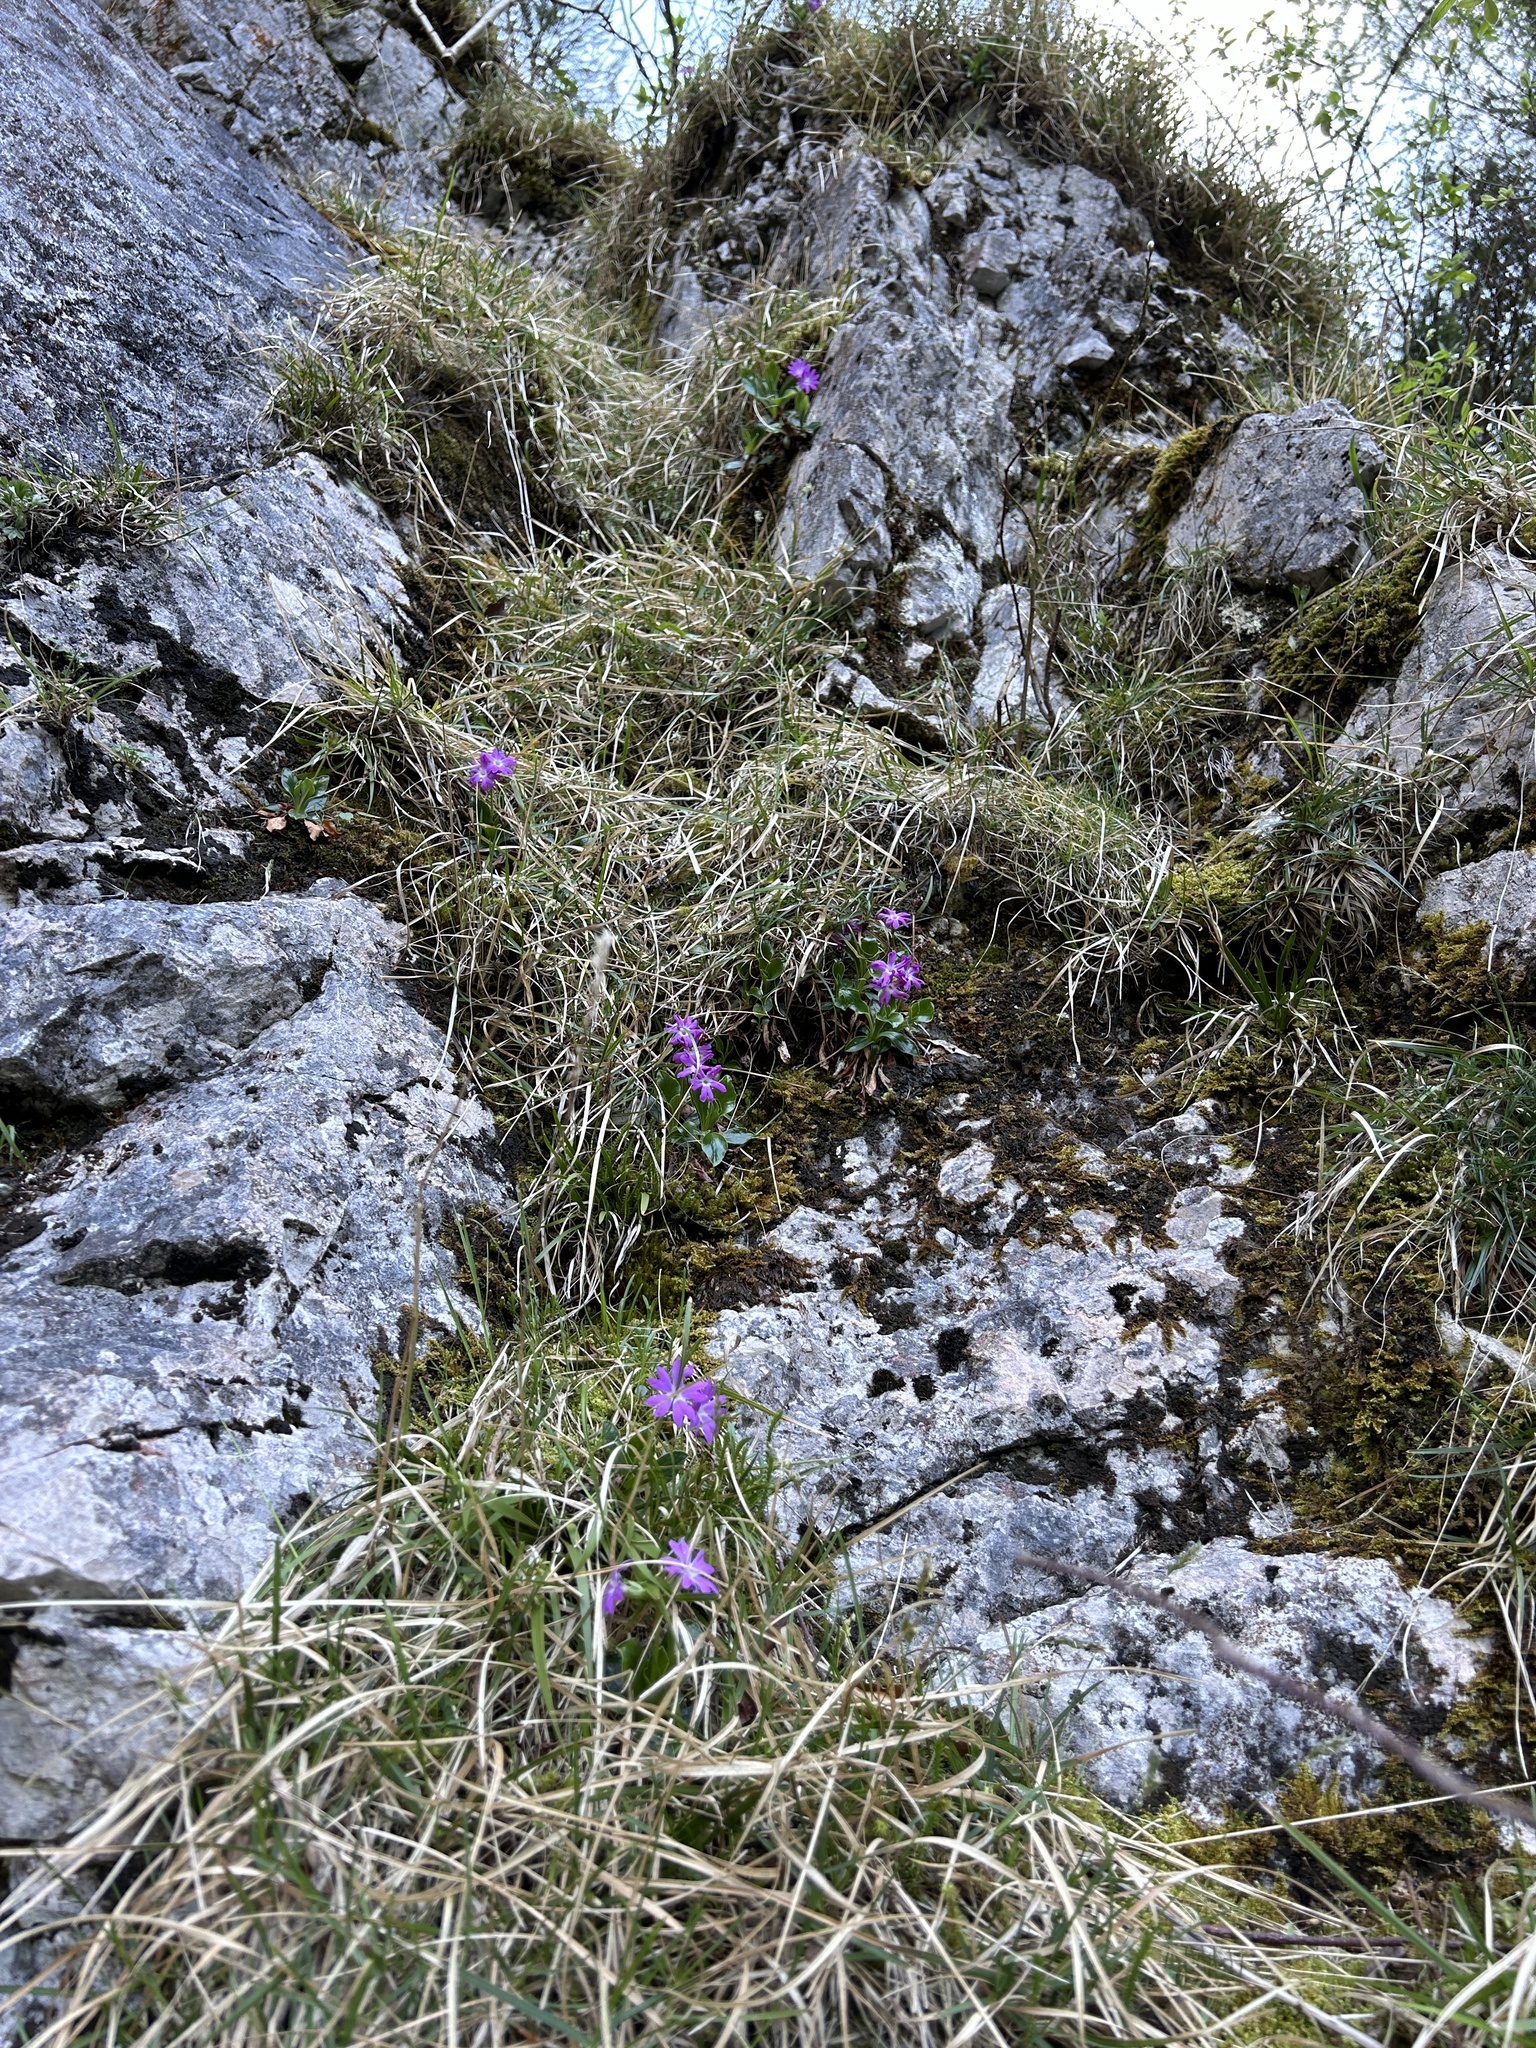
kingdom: Plantae
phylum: Tracheophyta
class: Magnoliopsida
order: Ericales
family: Primulaceae
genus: Primula
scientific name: Primula clusiana
